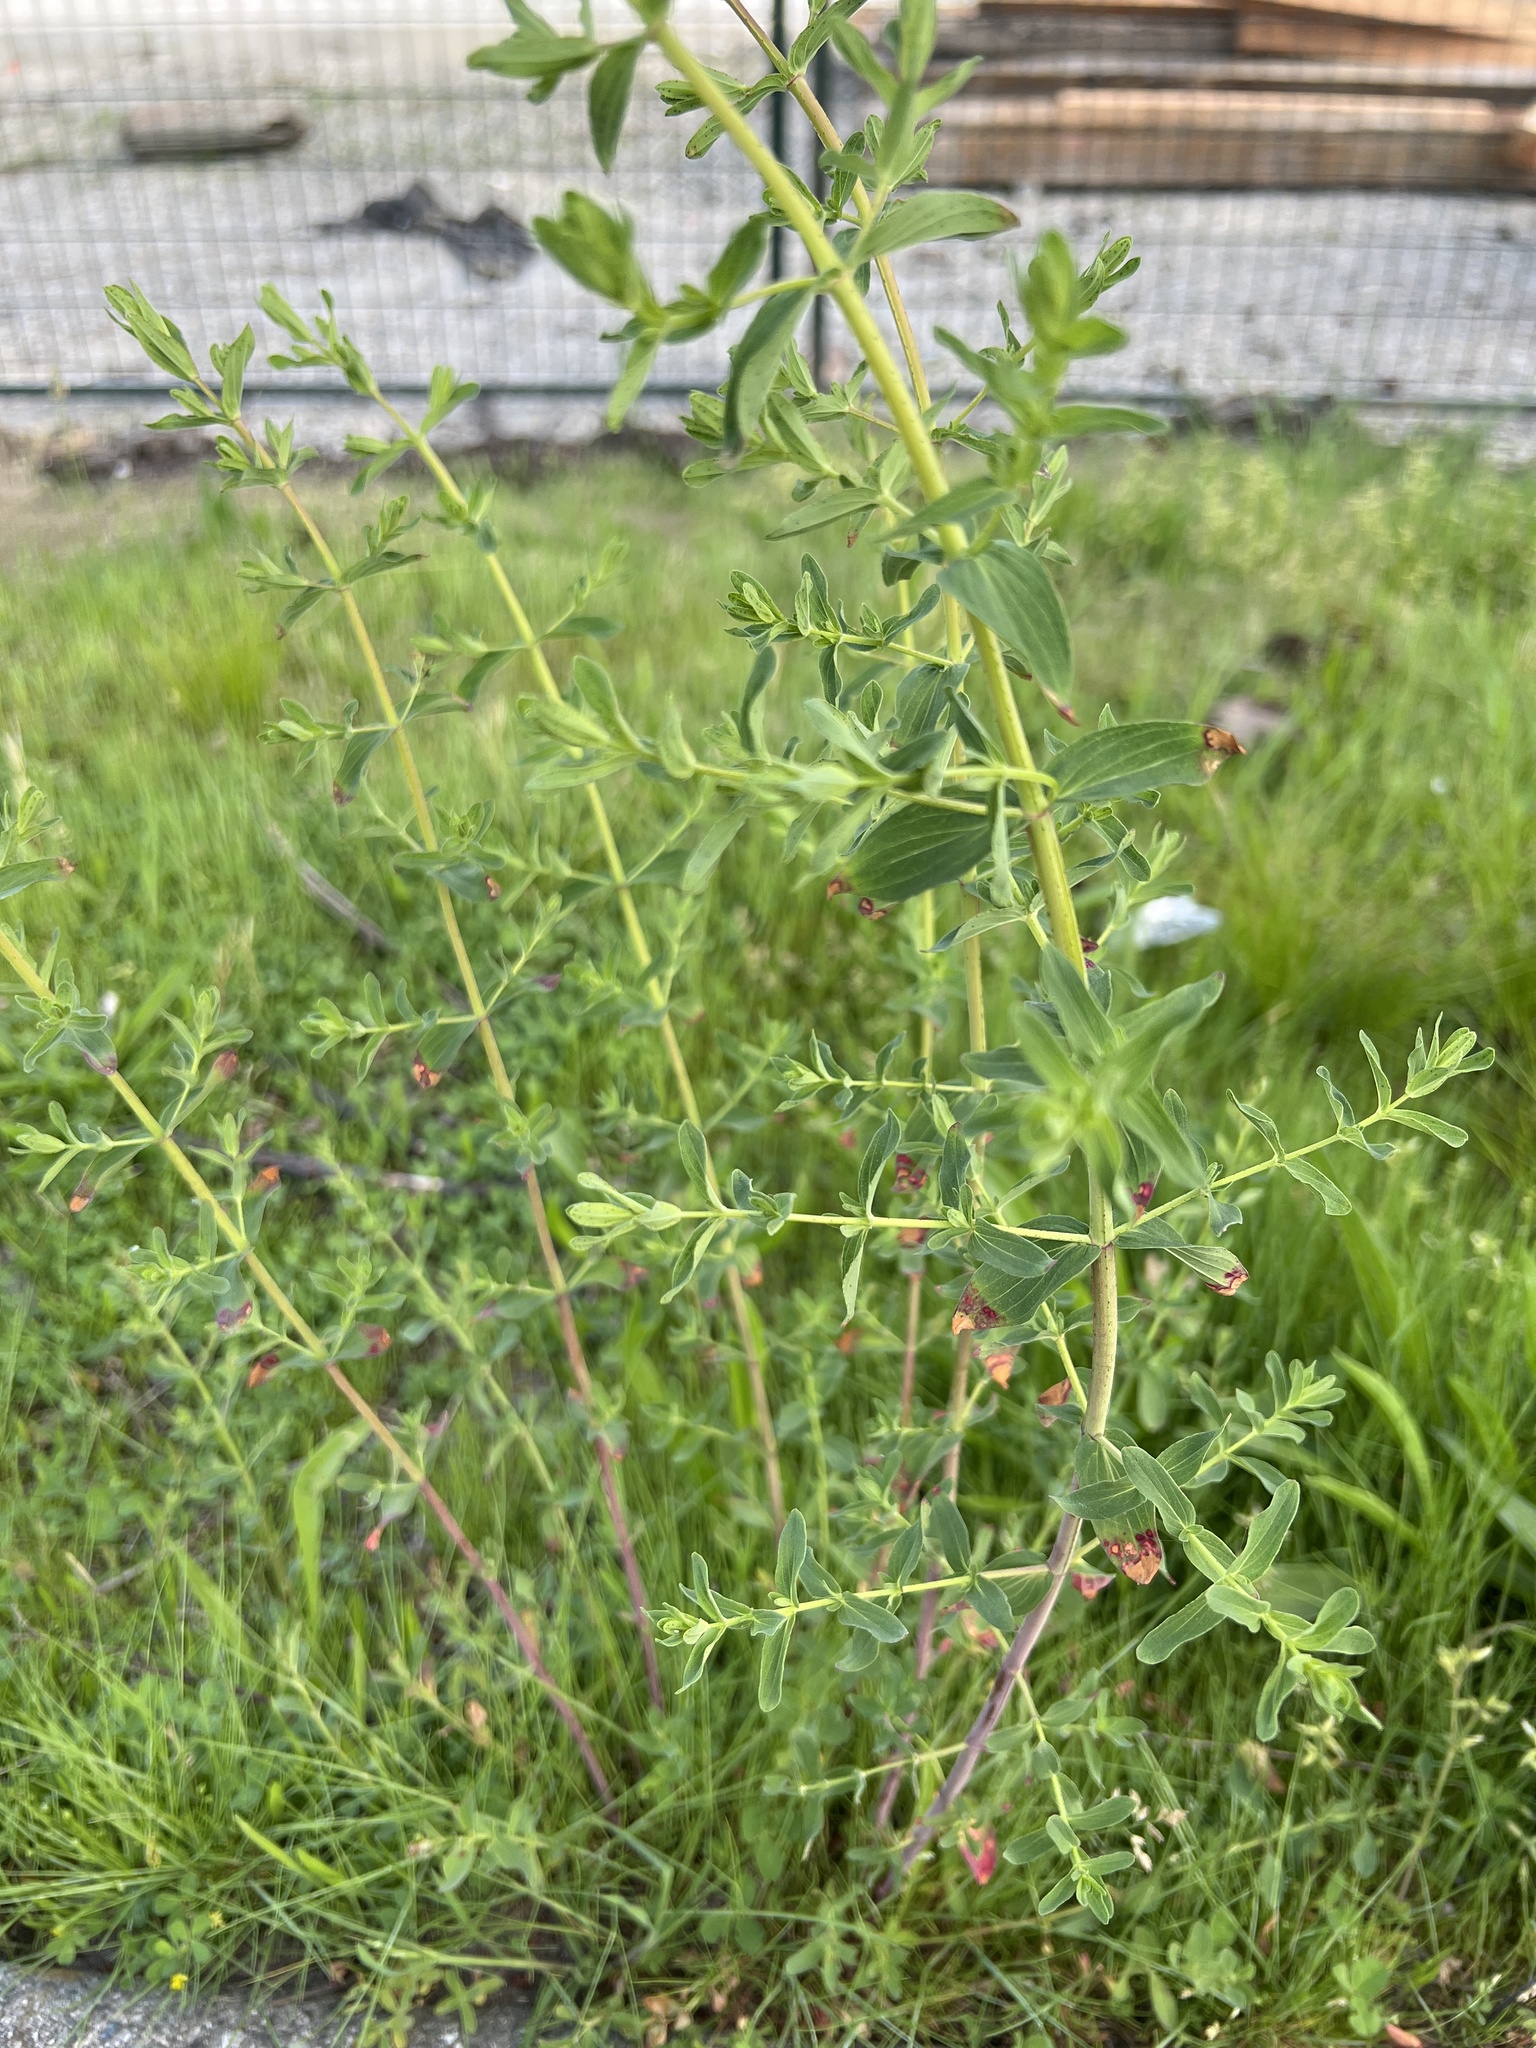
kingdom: Plantae
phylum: Tracheophyta
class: Magnoliopsida
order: Malpighiales
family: Hypericaceae
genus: Hypericum
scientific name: Hypericum perforatum
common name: Common st. johnswort
